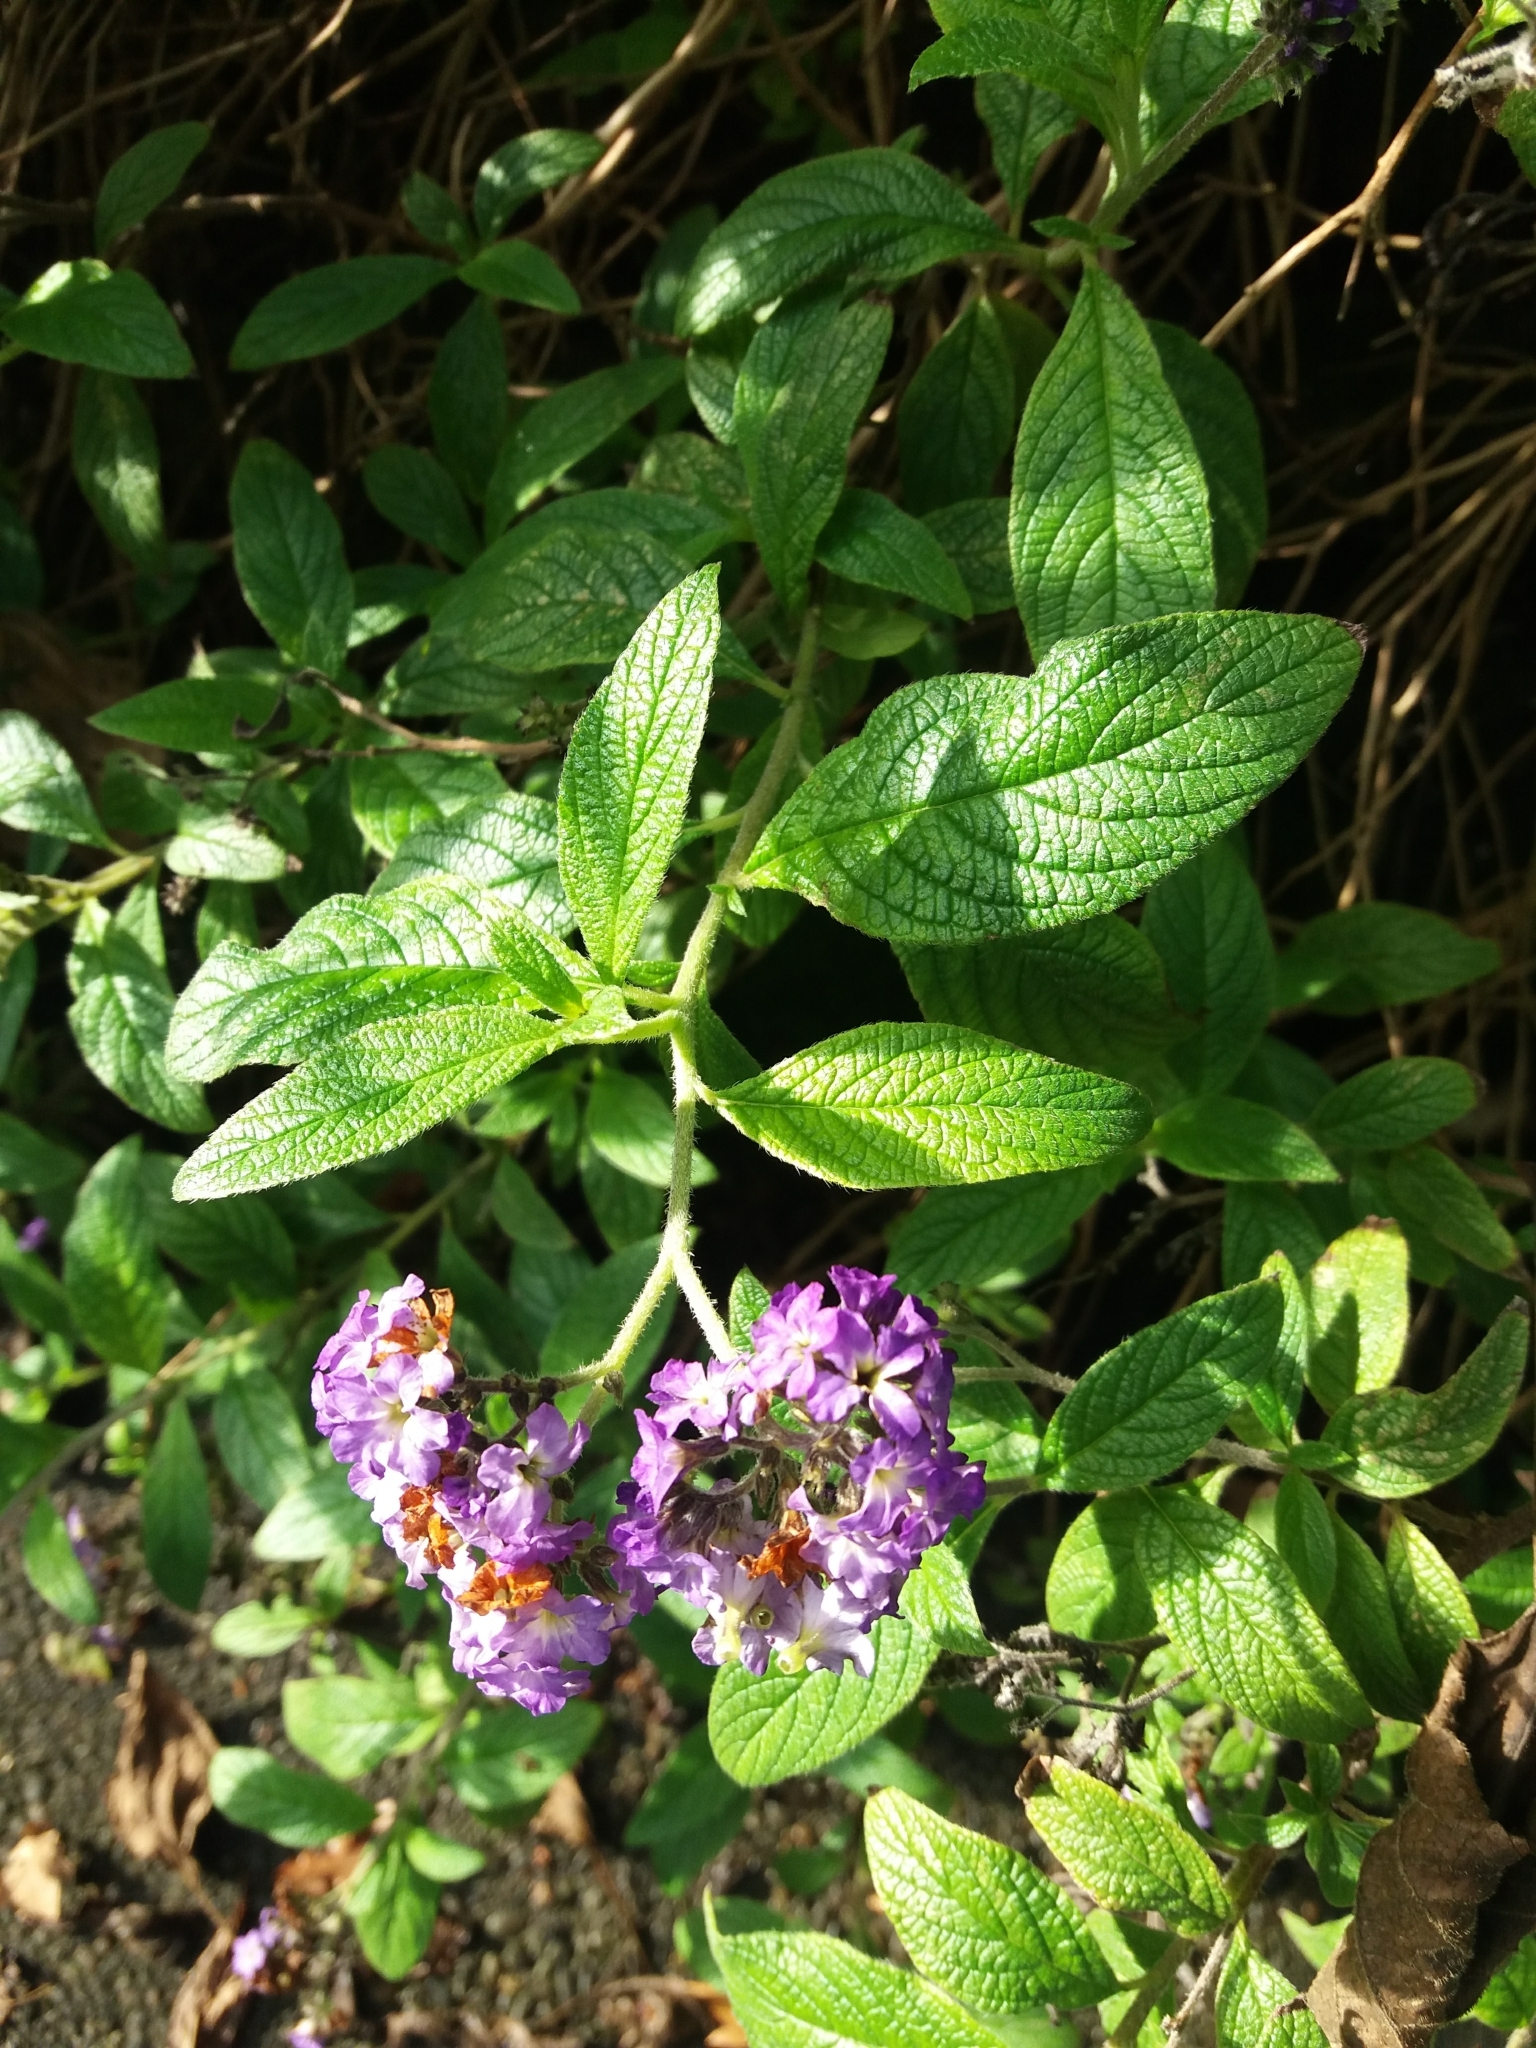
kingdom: Plantae
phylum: Tracheophyta
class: Magnoliopsida
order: Boraginales
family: Heliotropiaceae
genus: Heliotropium
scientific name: Heliotropium arborescens
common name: Cherry-pie
